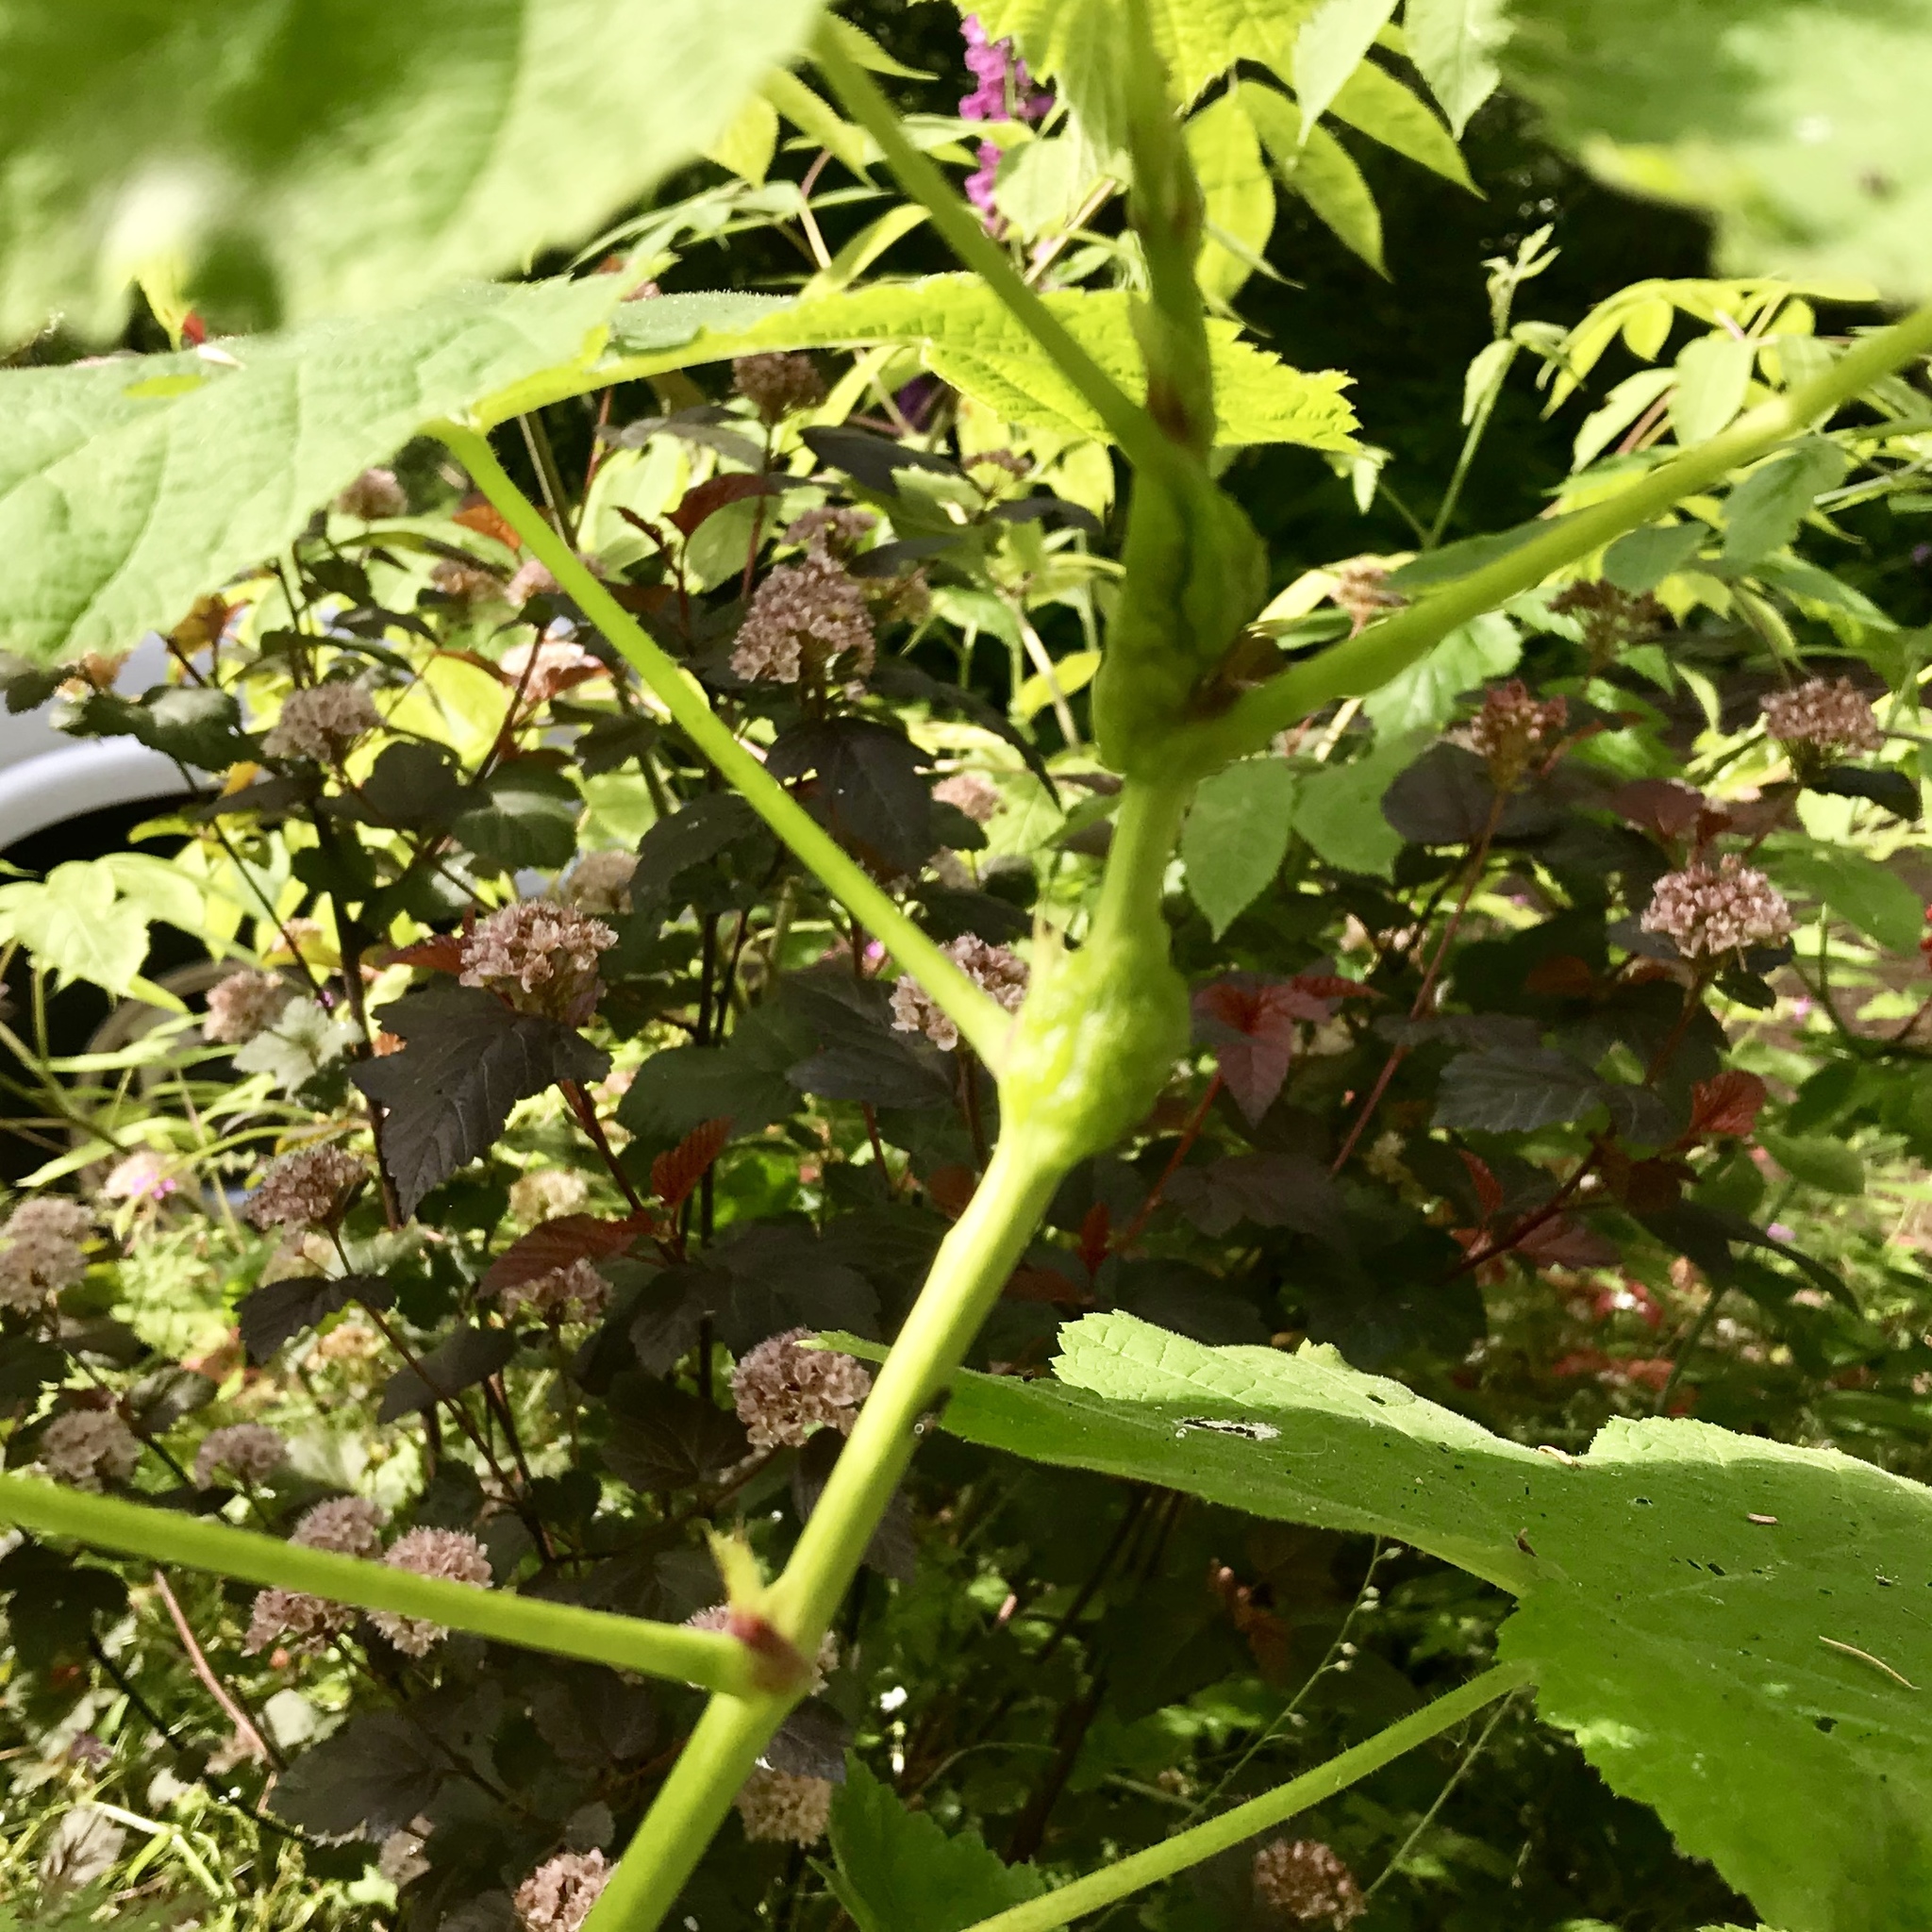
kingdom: Animalia
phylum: Arthropoda
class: Insecta
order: Hymenoptera
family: Cynipidae
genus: Diastrophus
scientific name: Diastrophus
